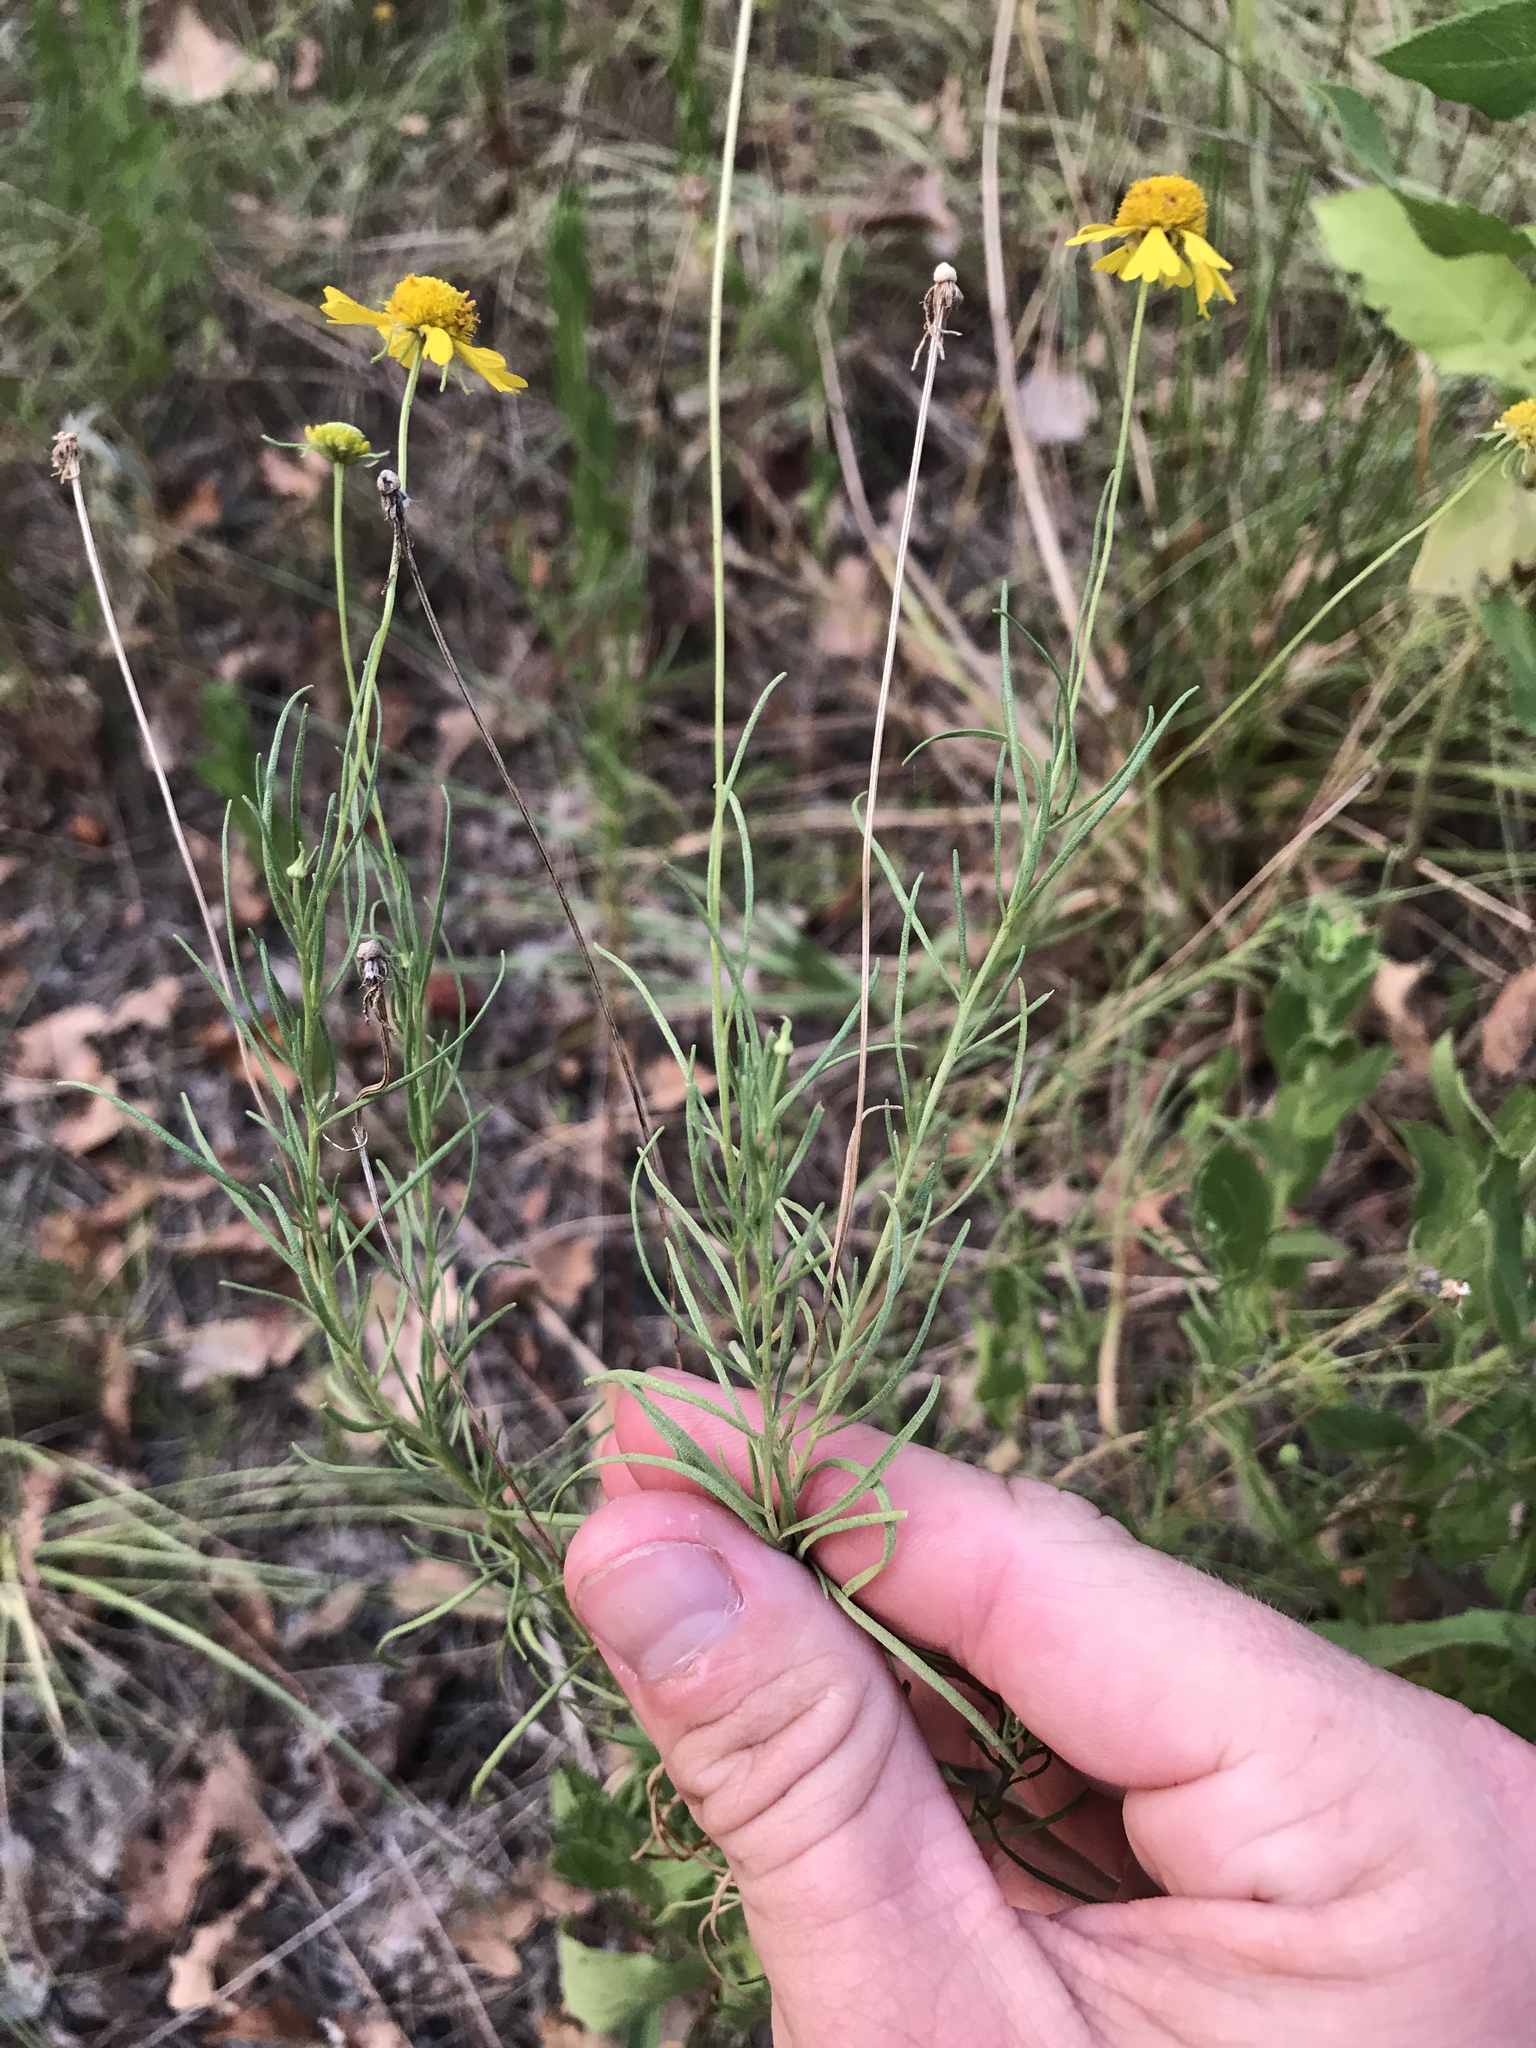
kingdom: Plantae
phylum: Tracheophyta
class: Magnoliopsida
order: Asterales
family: Asteraceae
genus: Helenium
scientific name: Helenium amarum
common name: Bitter sneezeweed
